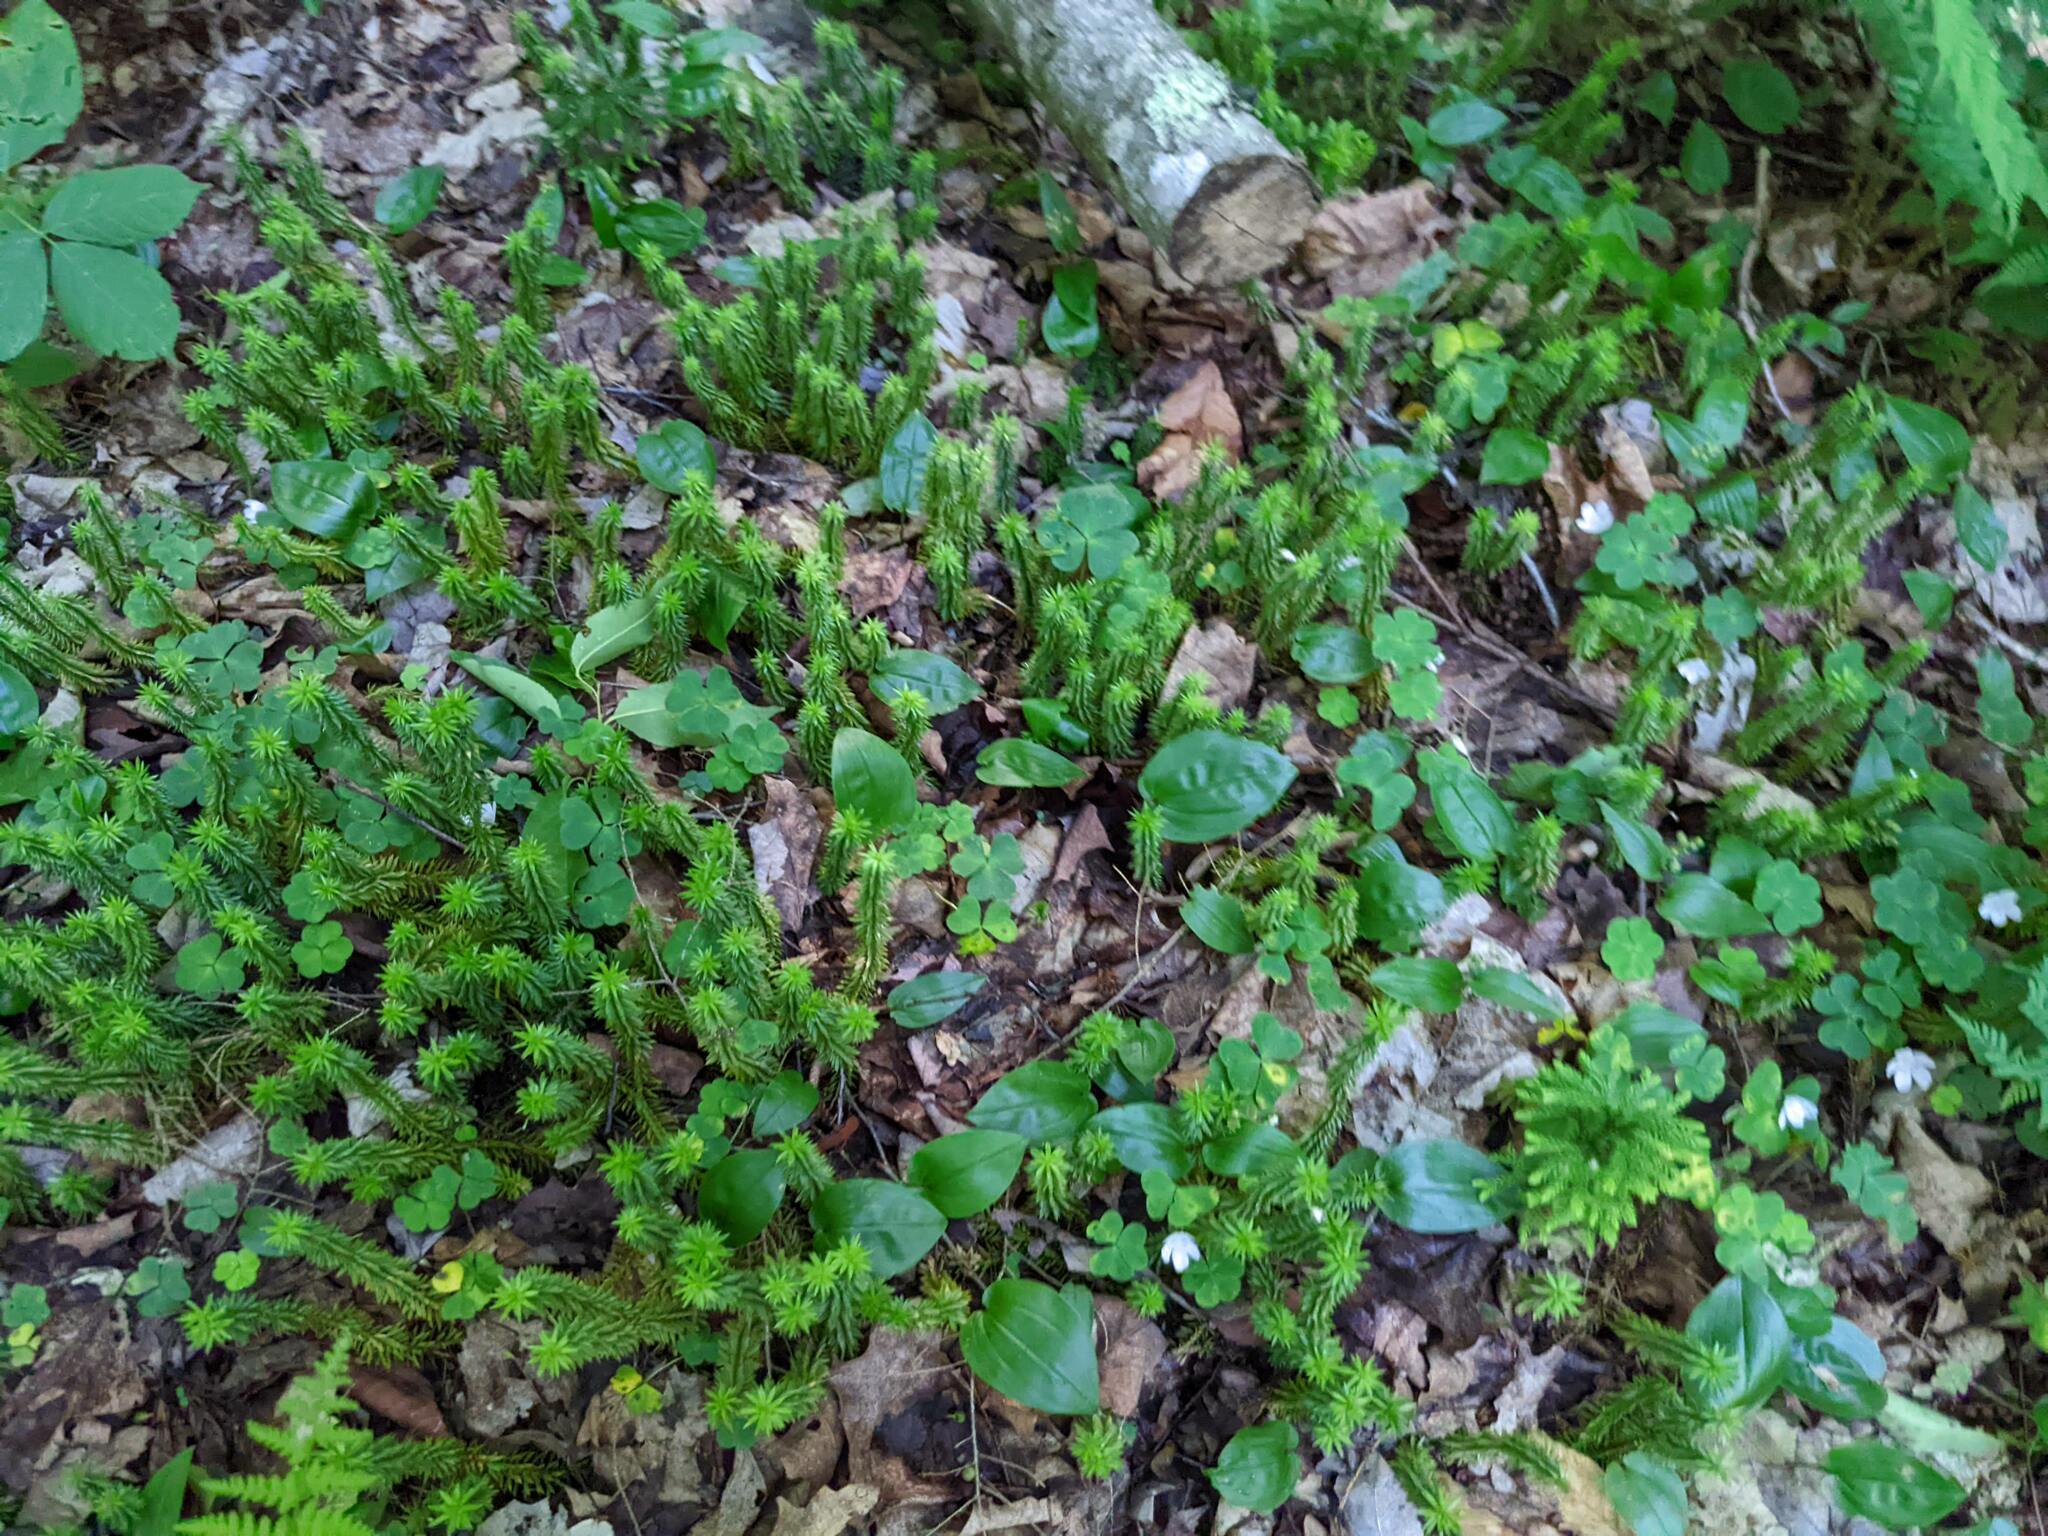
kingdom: Plantae
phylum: Tracheophyta
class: Liliopsida
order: Asparagales
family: Asparagaceae
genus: Maianthemum
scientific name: Maianthemum canadense
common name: False lily-of-the-valley
